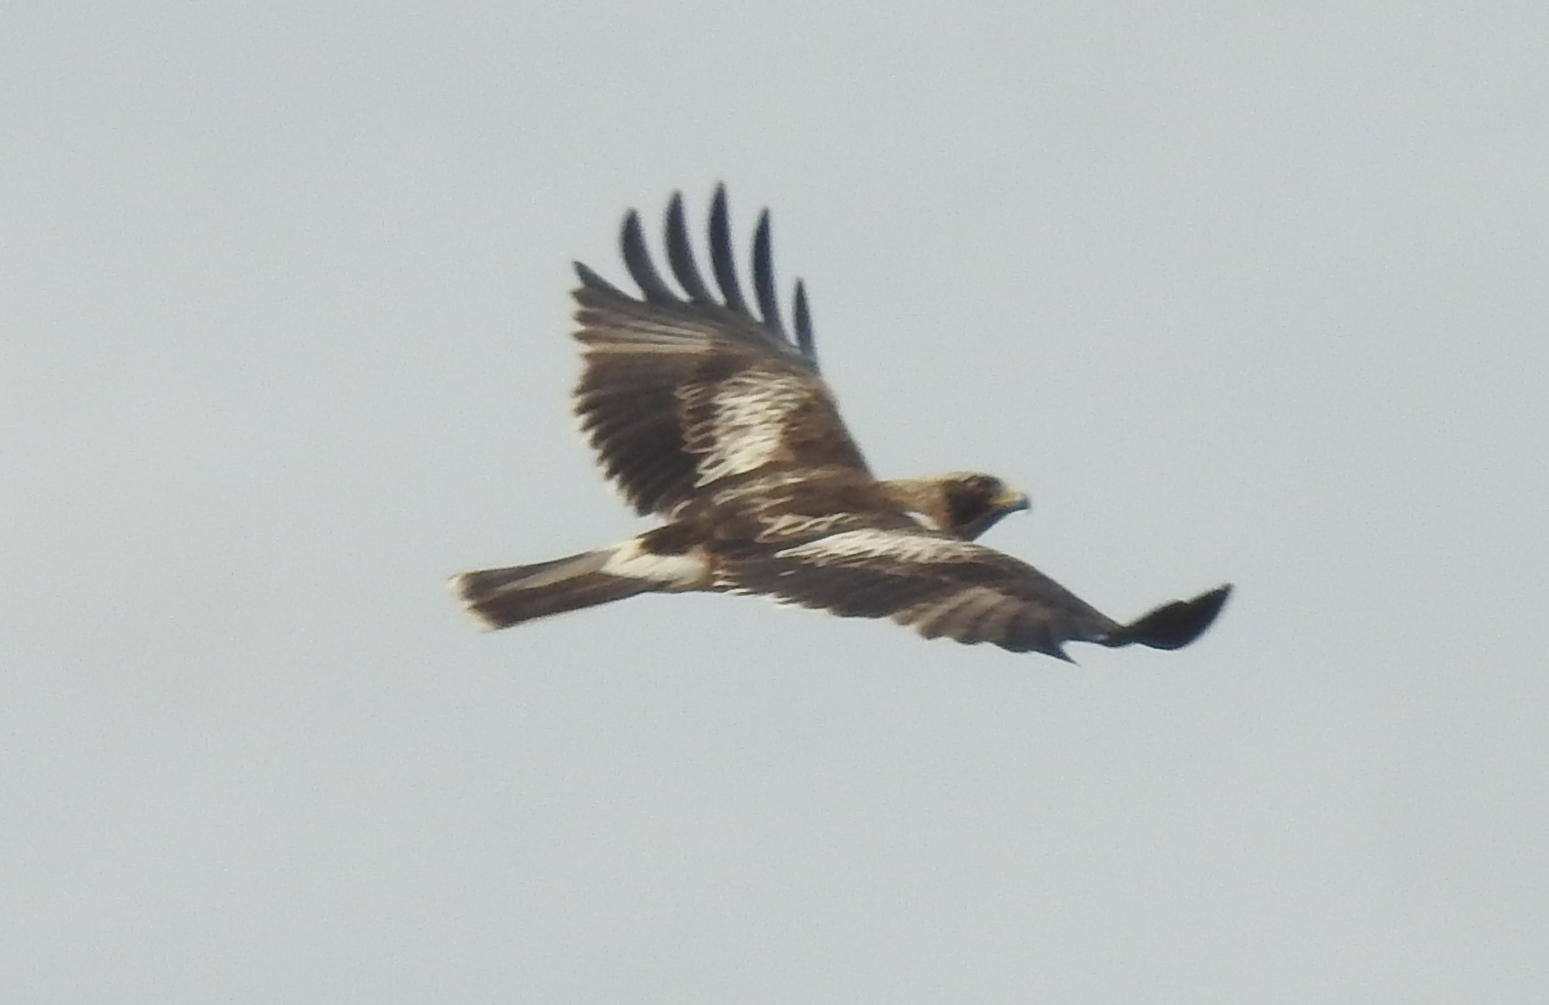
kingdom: Animalia
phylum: Chordata
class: Aves
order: Accipitriformes
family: Accipitridae
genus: Hieraaetus
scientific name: Hieraaetus pennatus
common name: Booted eagle
